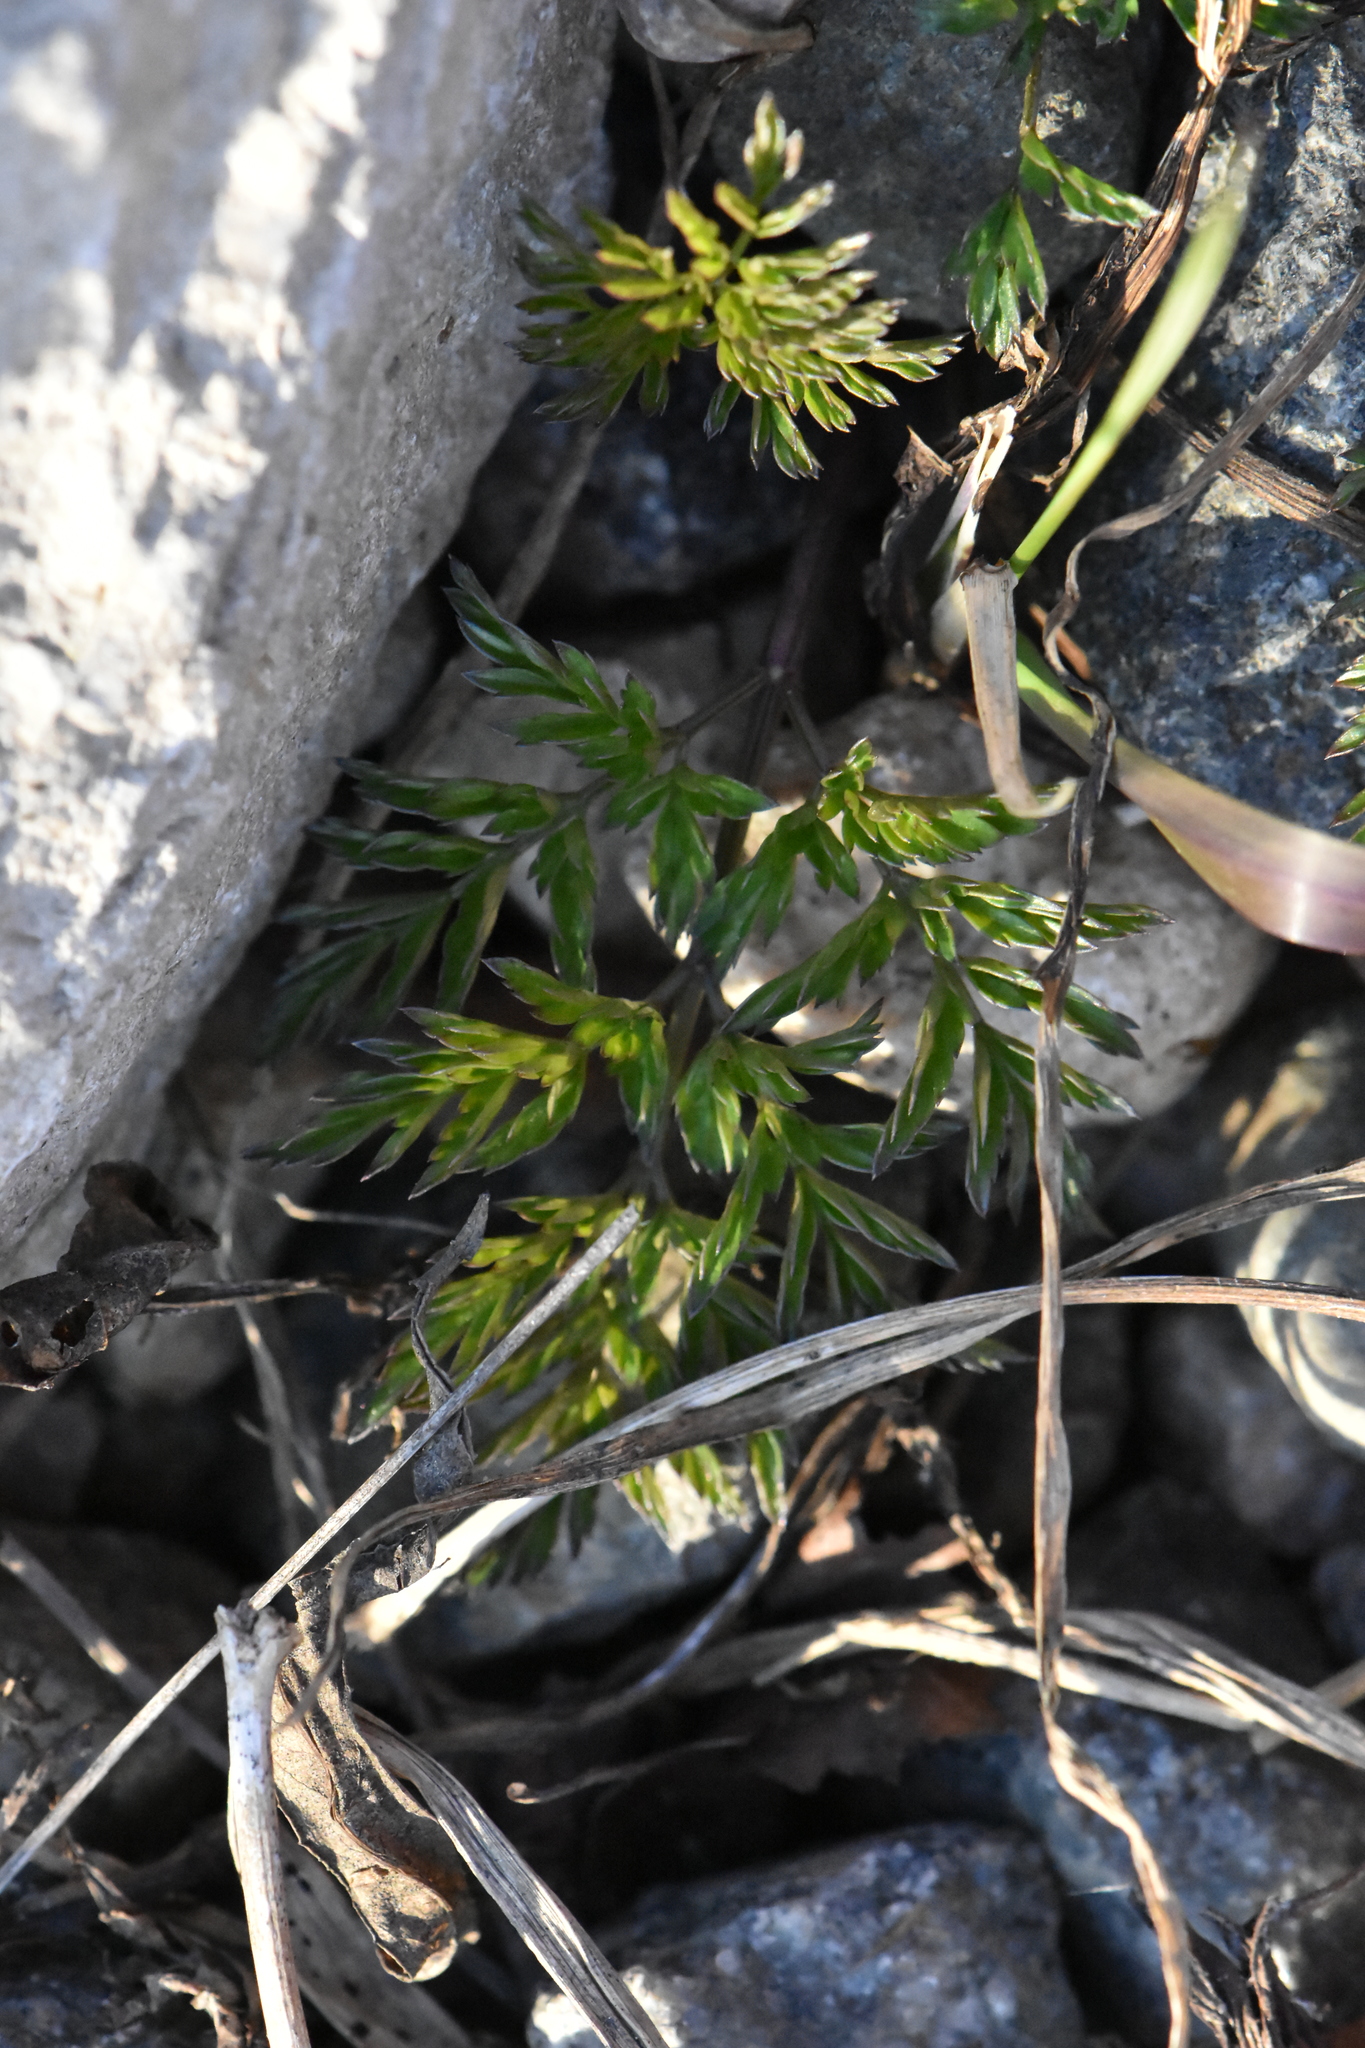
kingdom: Plantae
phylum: Tracheophyta
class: Magnoliopsida
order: Apiales
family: Apiaceae
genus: Anthriscus
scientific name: Anthriscus sylvestris
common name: Cow parsley
